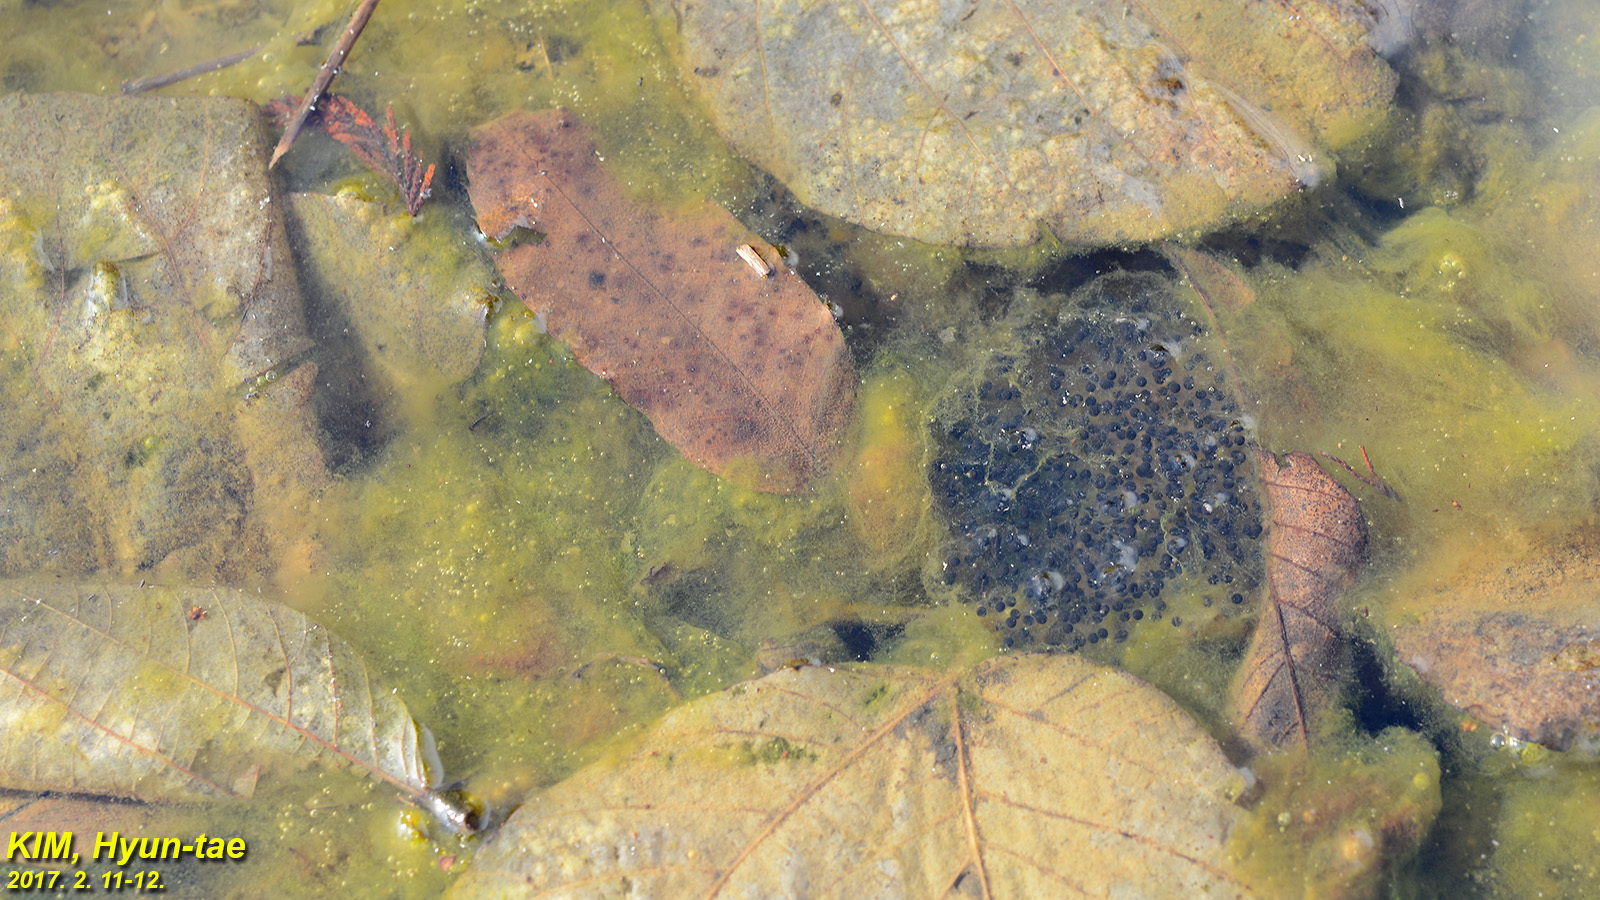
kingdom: Animalia
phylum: Chordata
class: Amphibia
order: Anura
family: Ranidae
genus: Rana
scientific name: Rana coreana
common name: Korean brown frog
